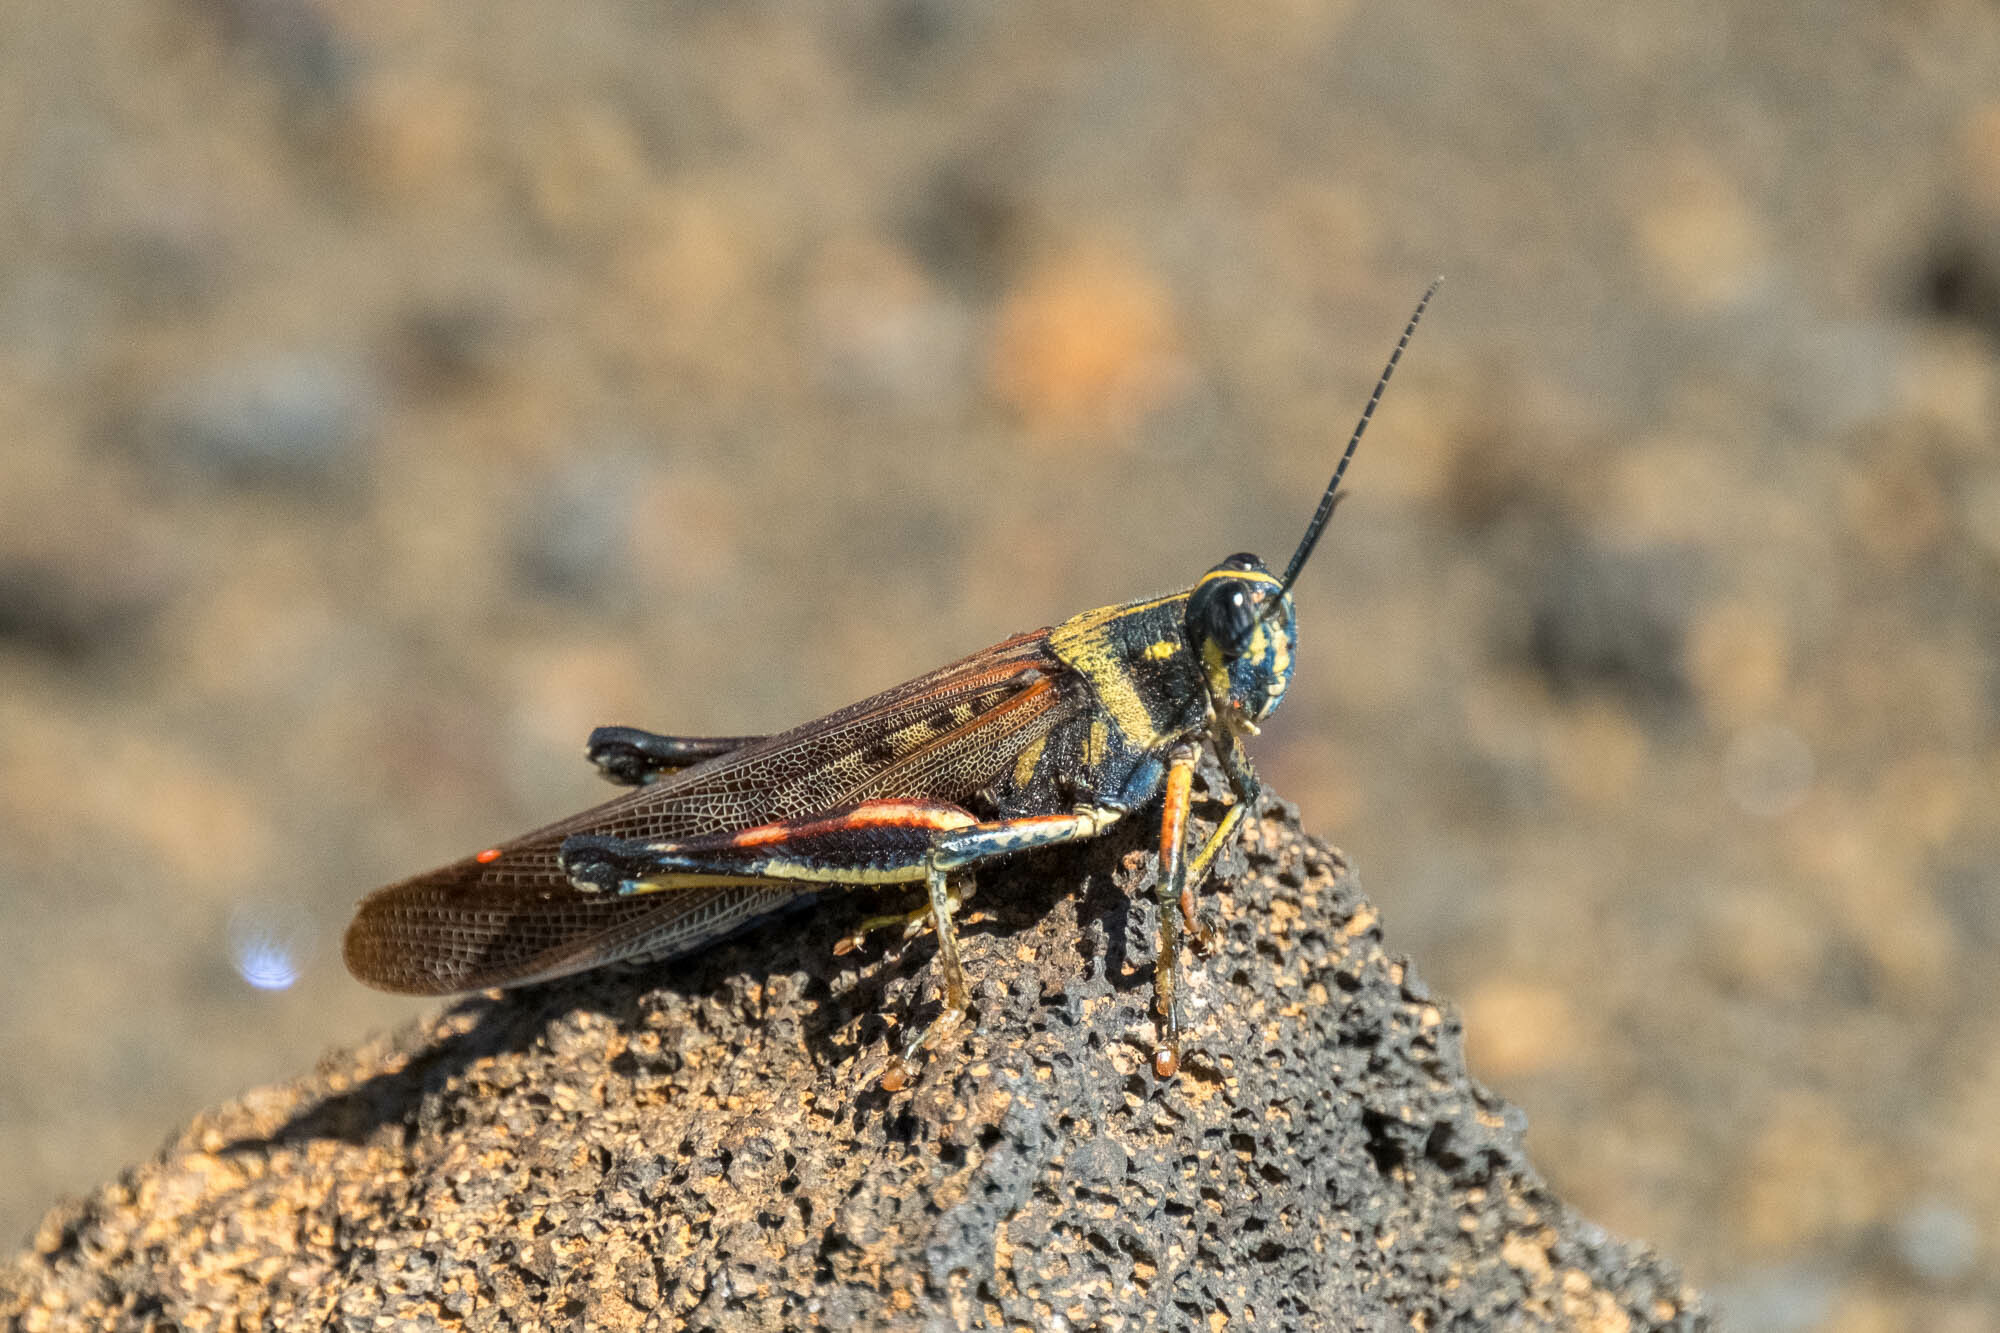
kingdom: Animalia
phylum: Arthropoda
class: Insecta
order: Orthoptera
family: Acrididae
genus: Schistocerca
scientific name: Schistocerca melanocera
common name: Large painted locust
